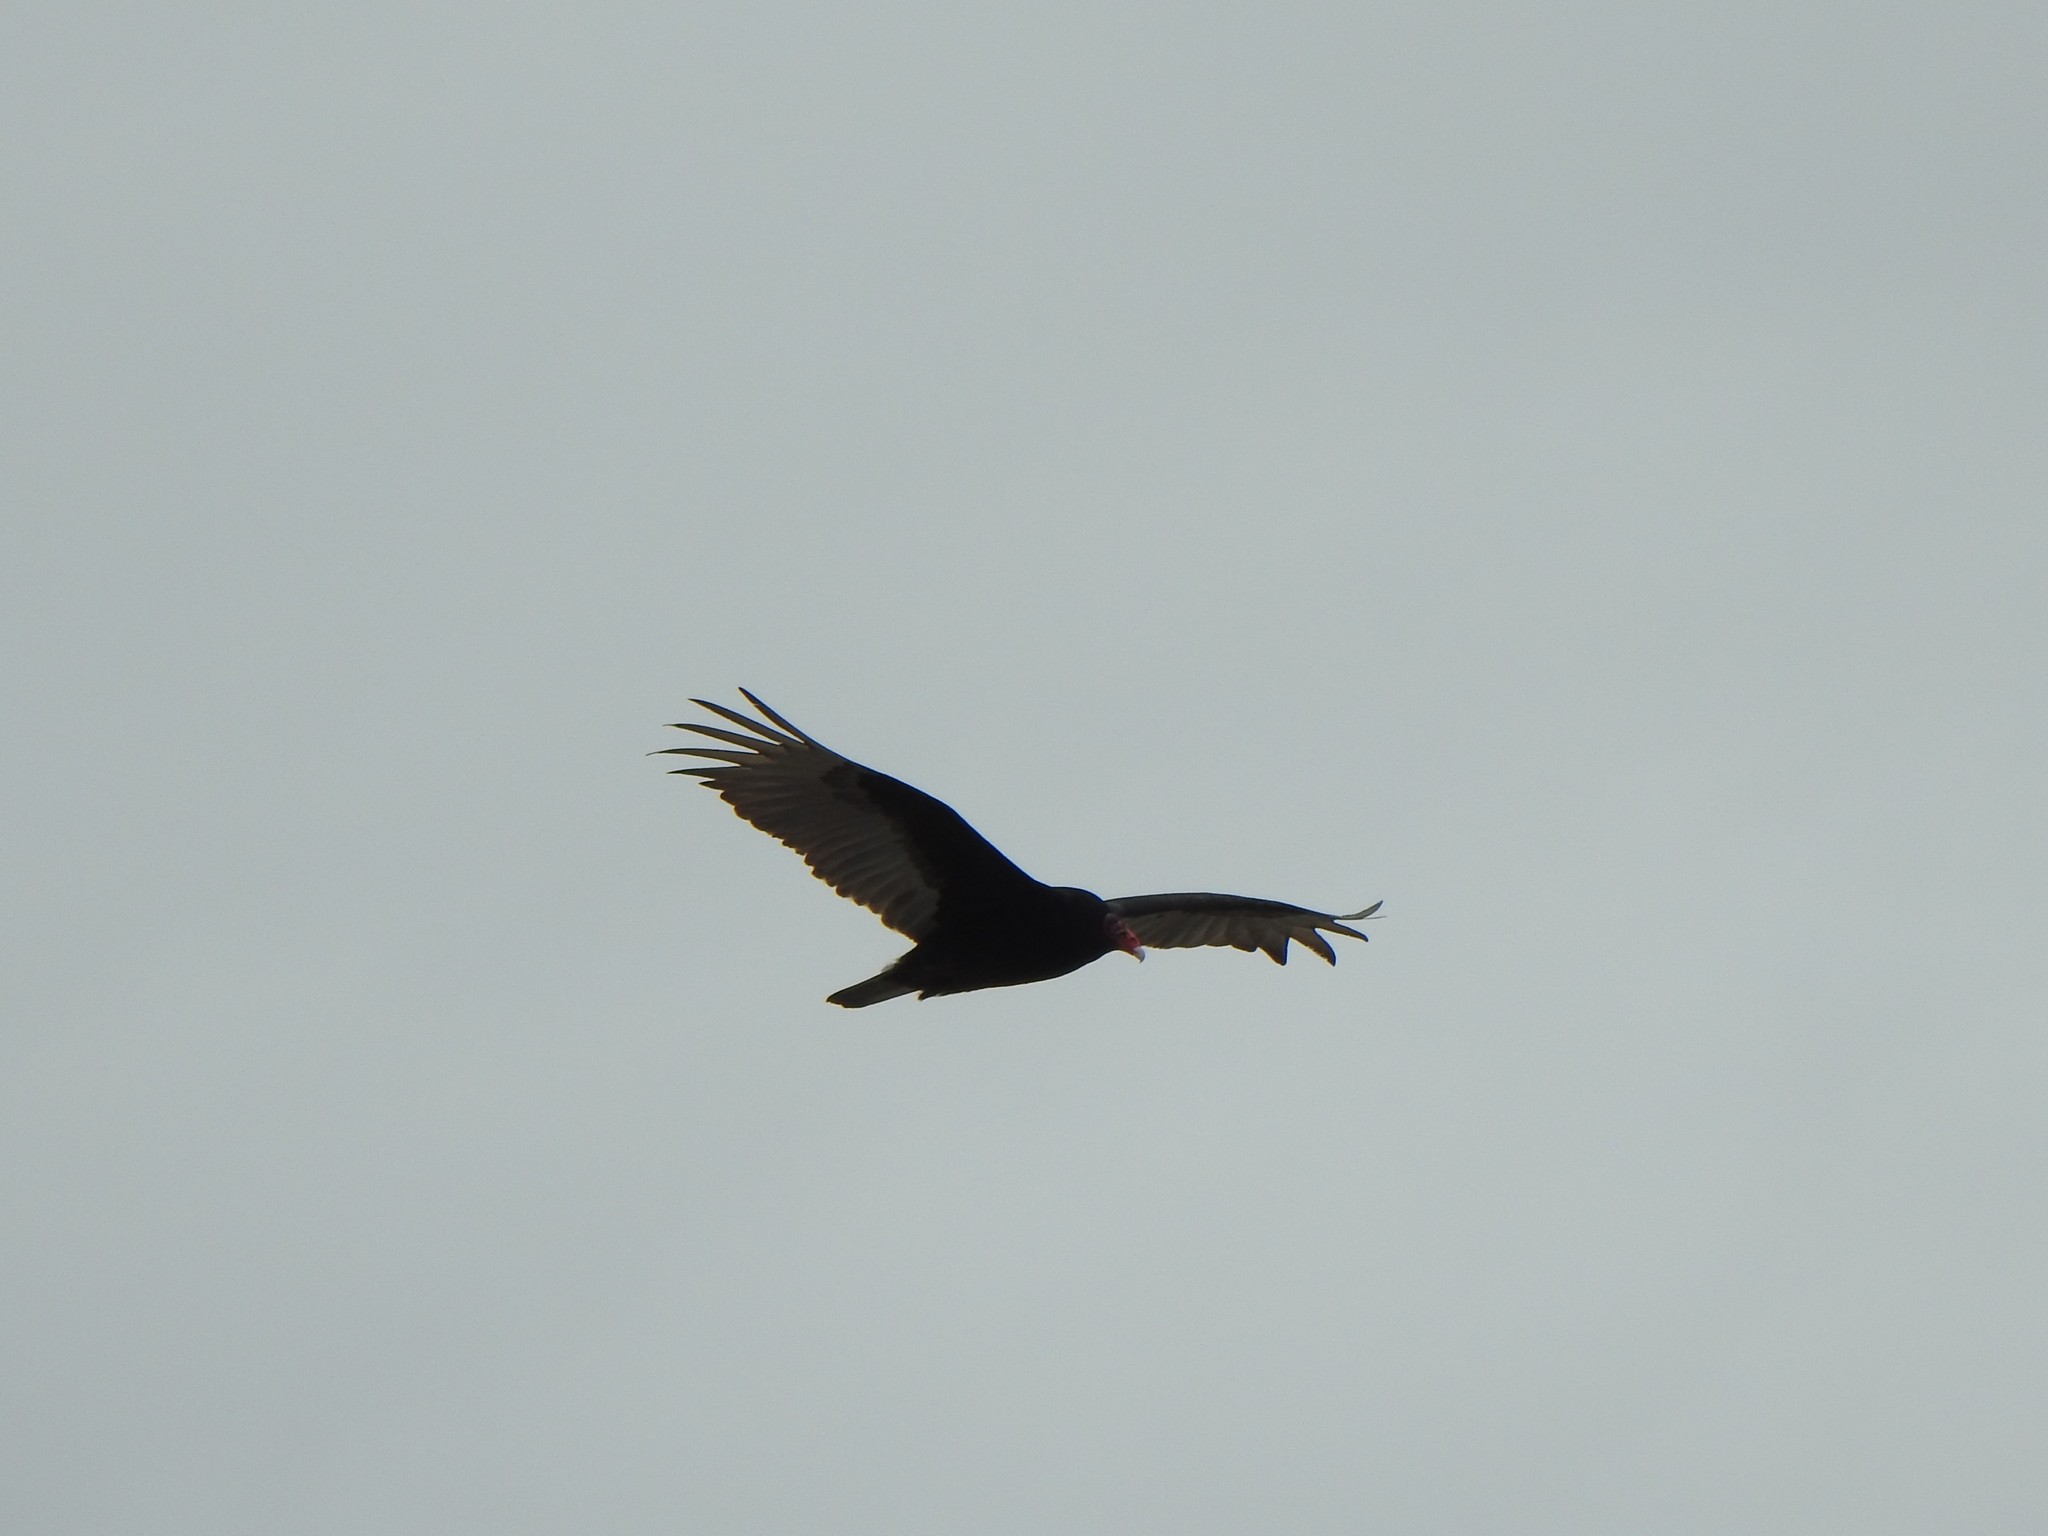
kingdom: Animalia
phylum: Chordata
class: Aves
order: Accipitriformes
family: Cathartidae
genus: Cathartes
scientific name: Cathartes aura
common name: Turkey vulture
